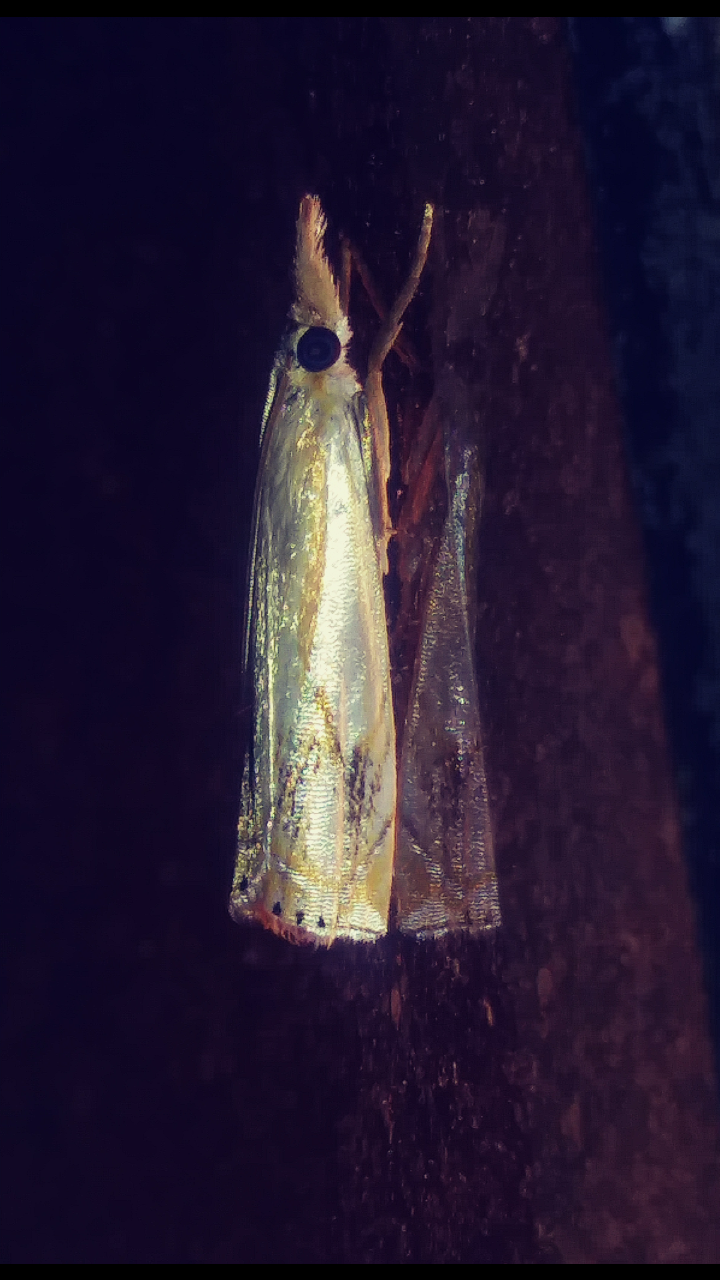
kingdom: Animalia
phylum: Arthropoda
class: Insecta
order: Lepidoptera
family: Crambidae
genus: Crambus
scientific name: Crambus agitatellus
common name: Double-banded grass-veneer
